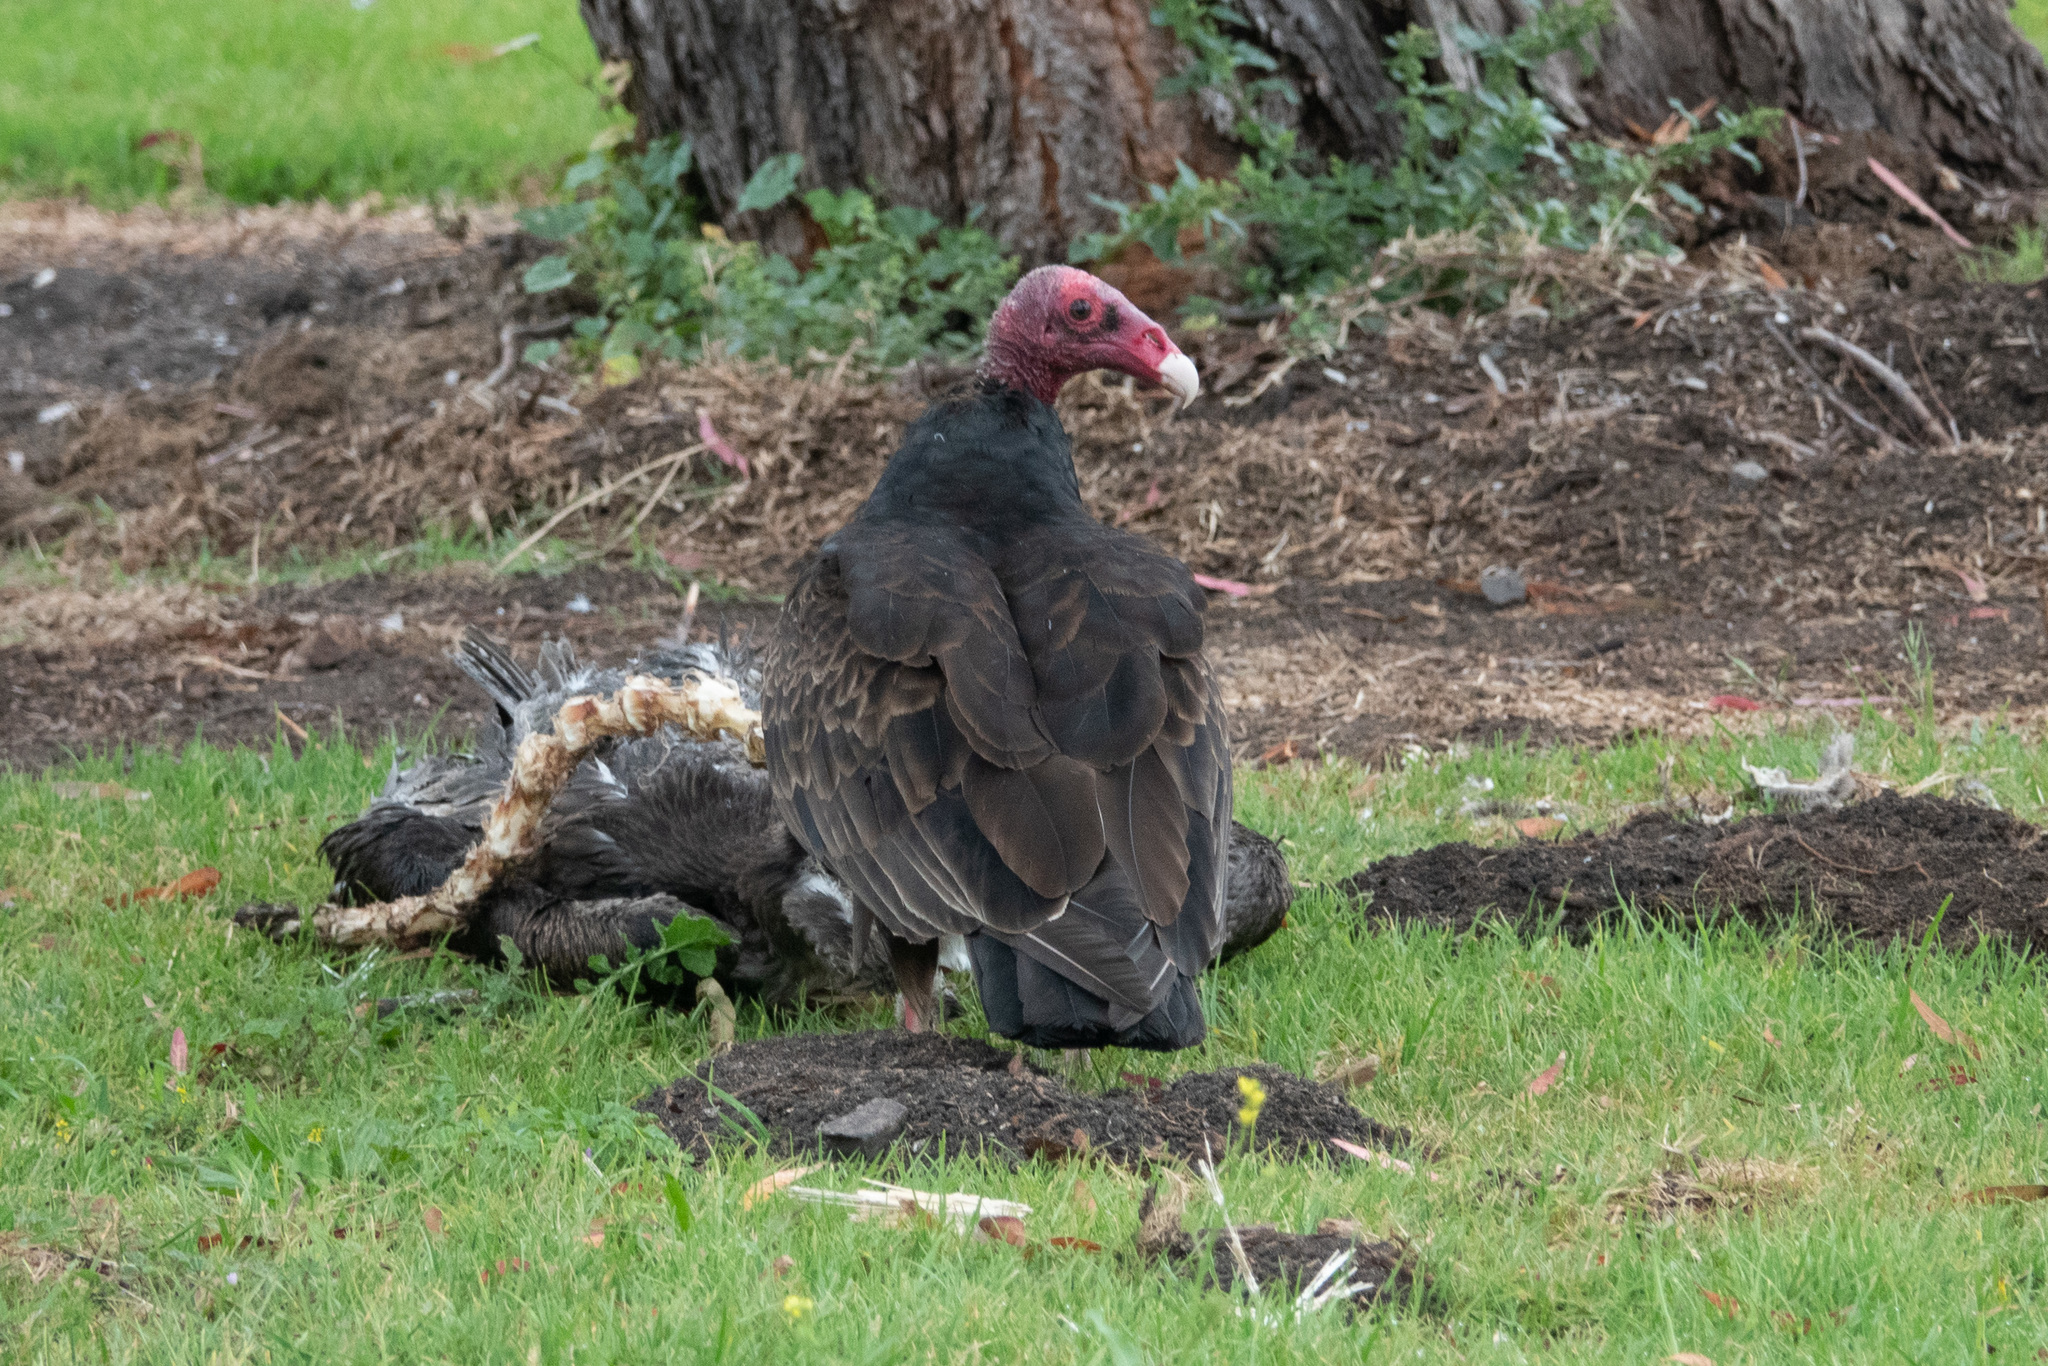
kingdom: Animalia
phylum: Chordata
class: Aves
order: Accipitriformes
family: Cathartidae
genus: Cathartes
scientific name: Cathartes aura
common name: Turkey vulture
